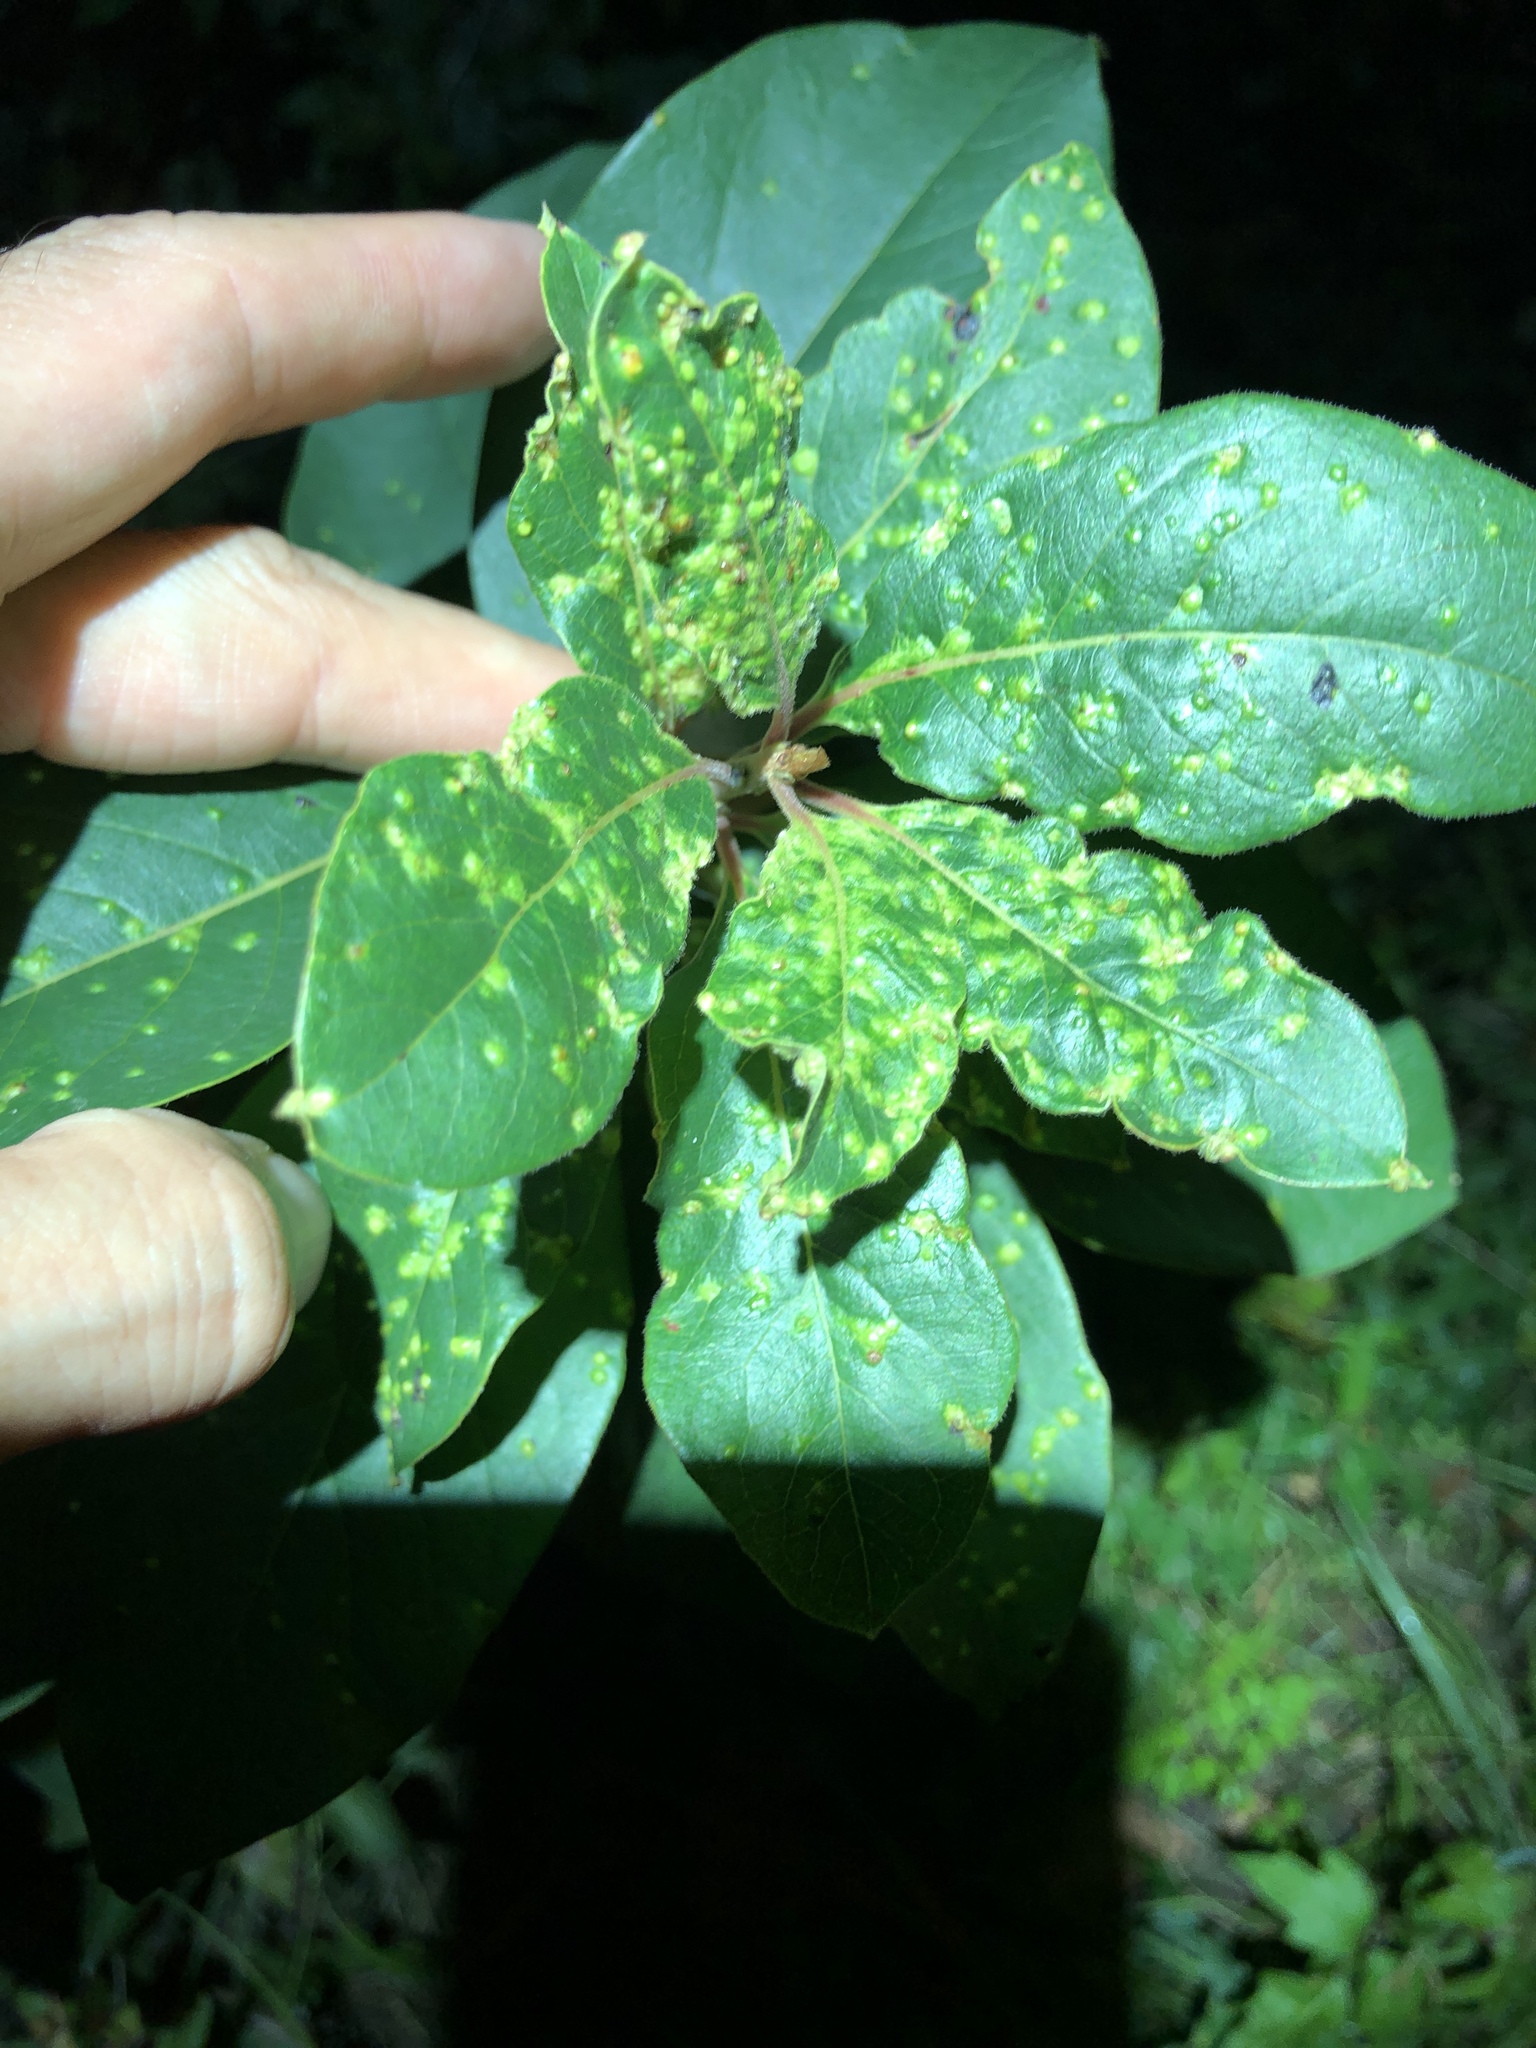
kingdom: Animalia
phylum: Arthropoda
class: Arachnida
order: Trombidiformes
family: Eriophyidae
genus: Aceria
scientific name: Aceria
